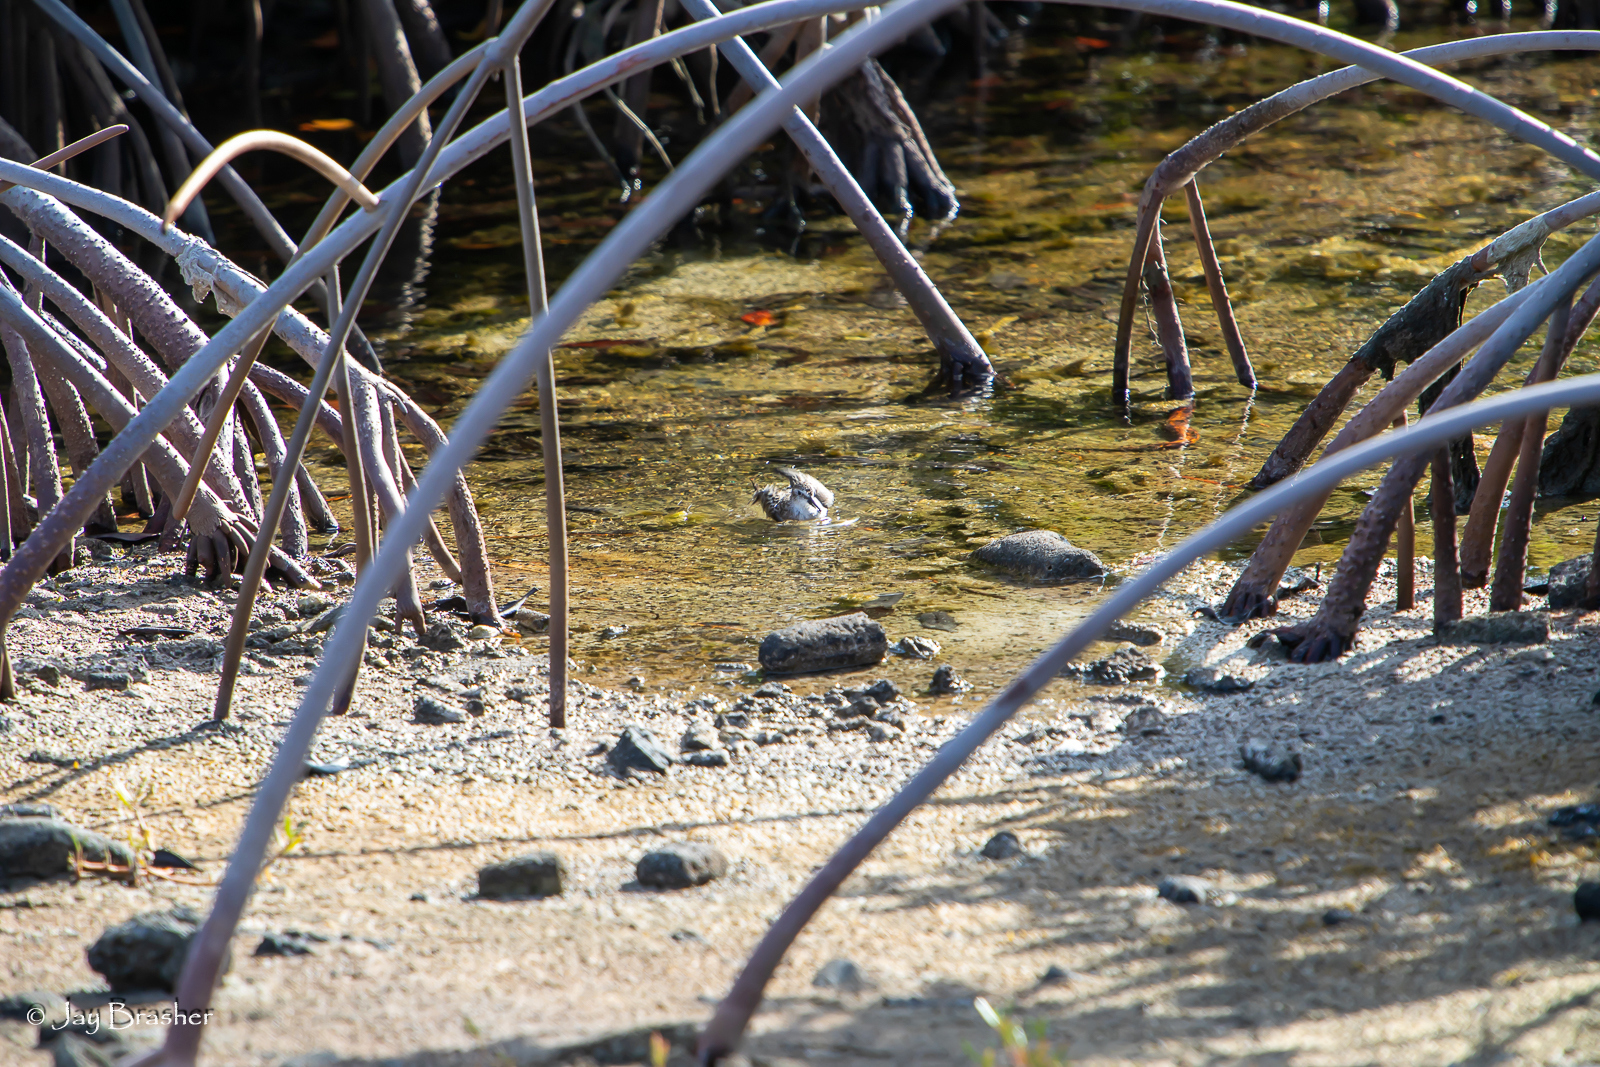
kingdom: Plantae
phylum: Tracheophyta
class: Magnoliopsida
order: Malpighiales
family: Rhizophoraceae
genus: Rhizophora
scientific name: Rhizophora mangle
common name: Red mangrove
